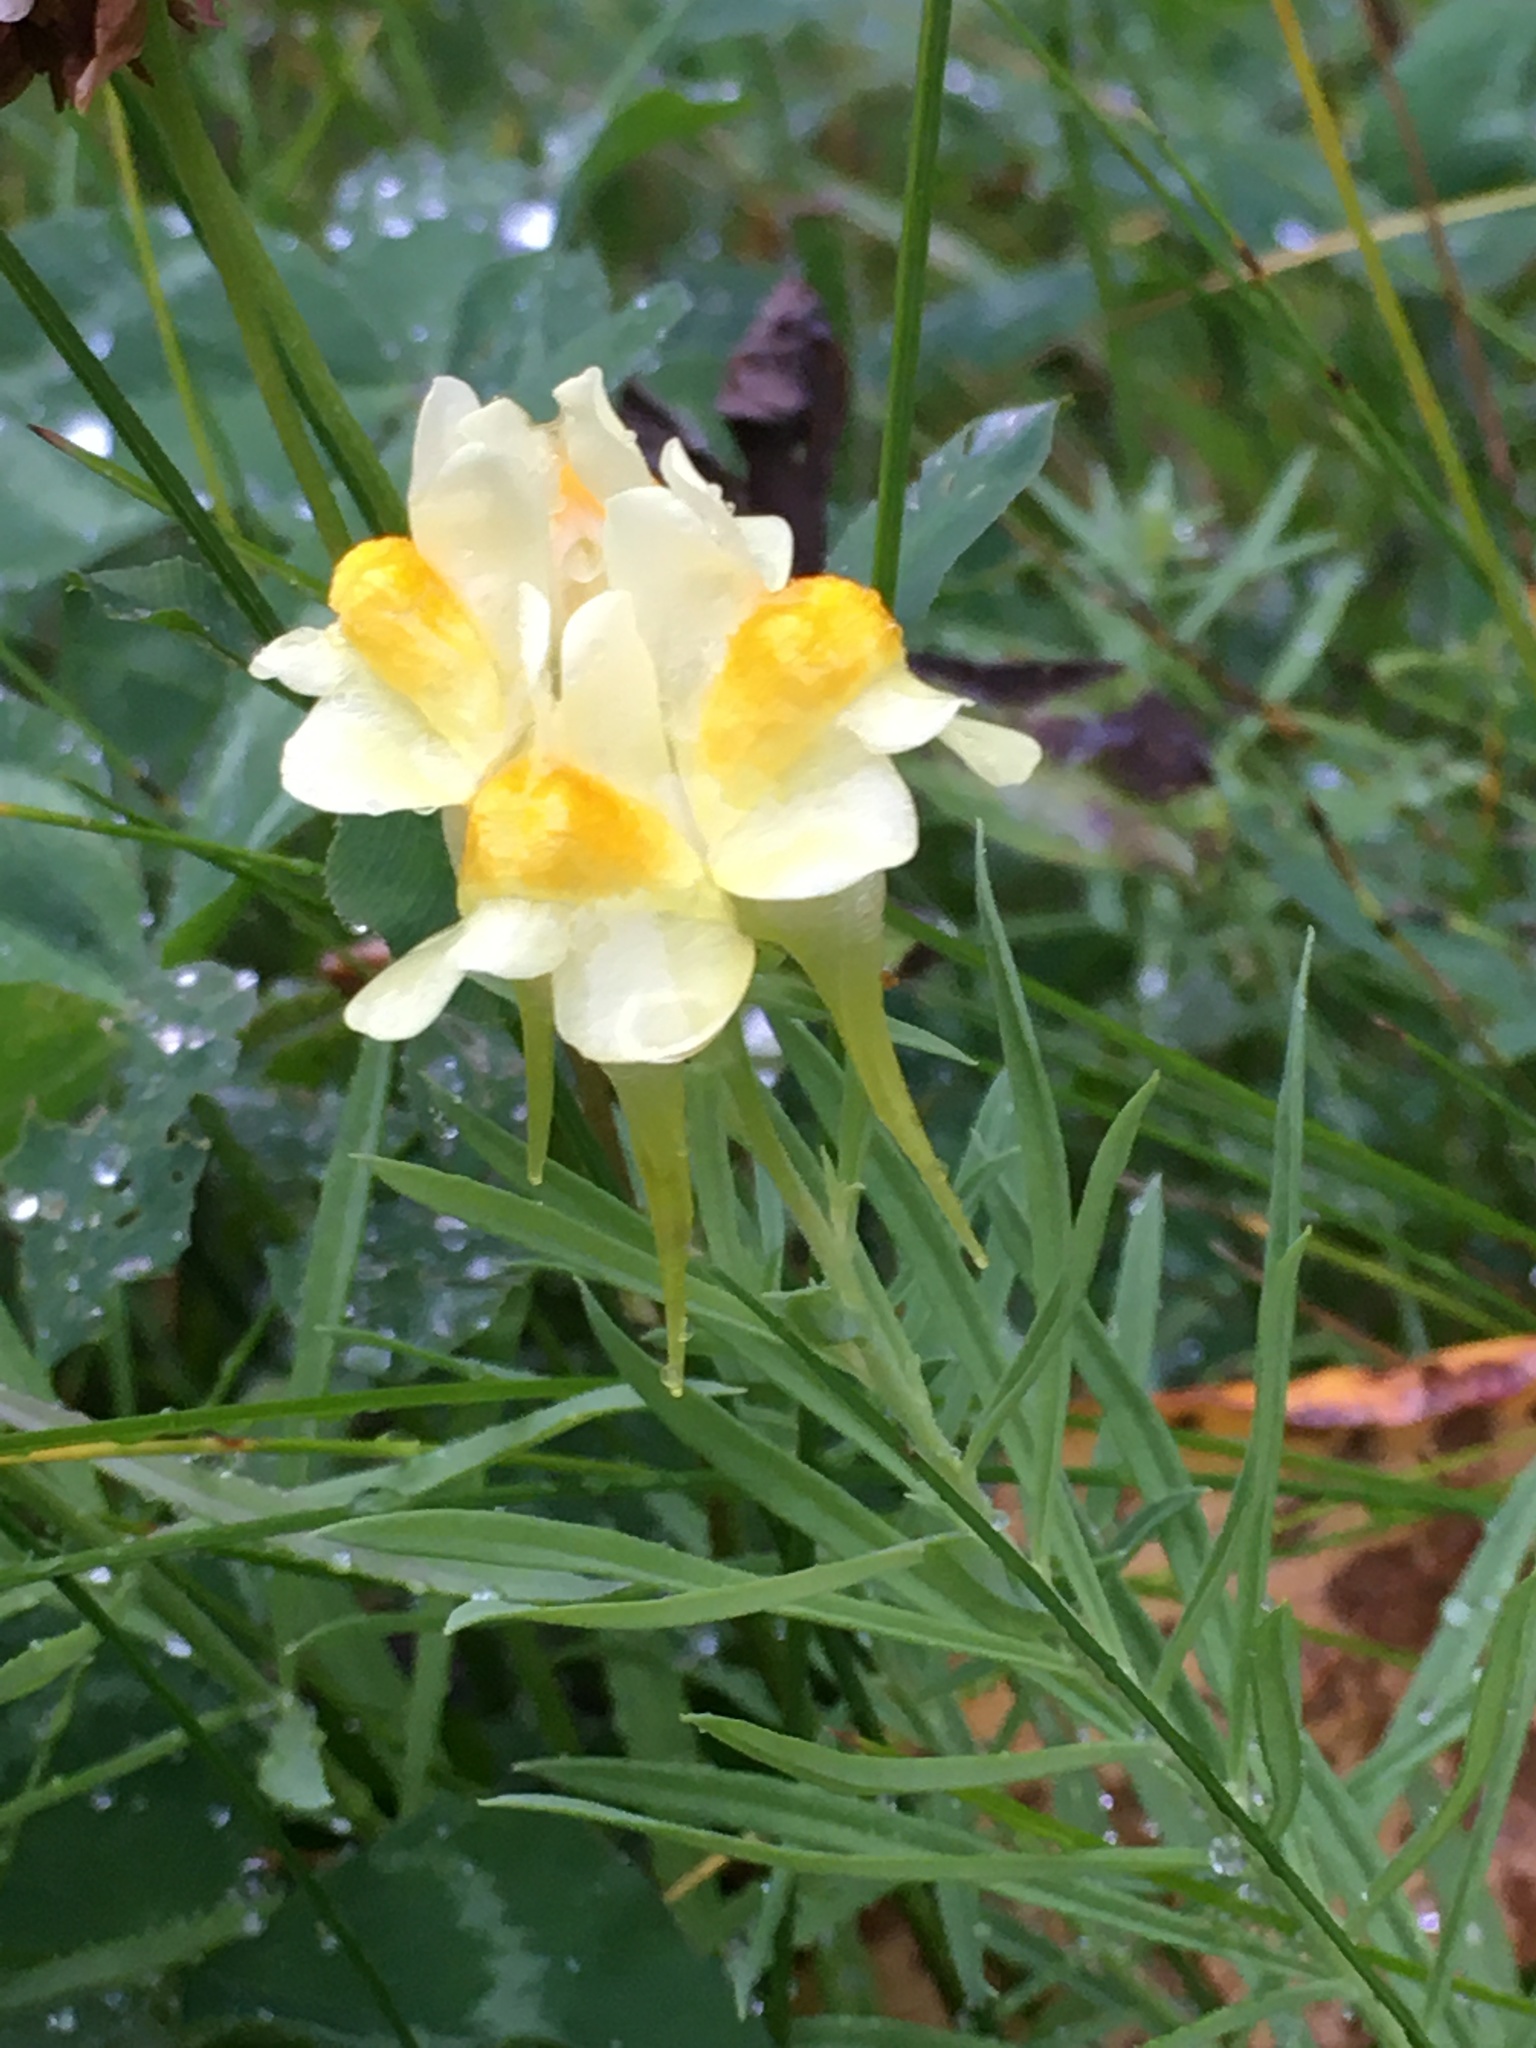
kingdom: Plantae
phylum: Tracheophyta
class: Magnoliopsida
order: Lamiales
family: Plantaginaceae
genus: Linaria
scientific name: Linaria vulgaris
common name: Butter and eggs
